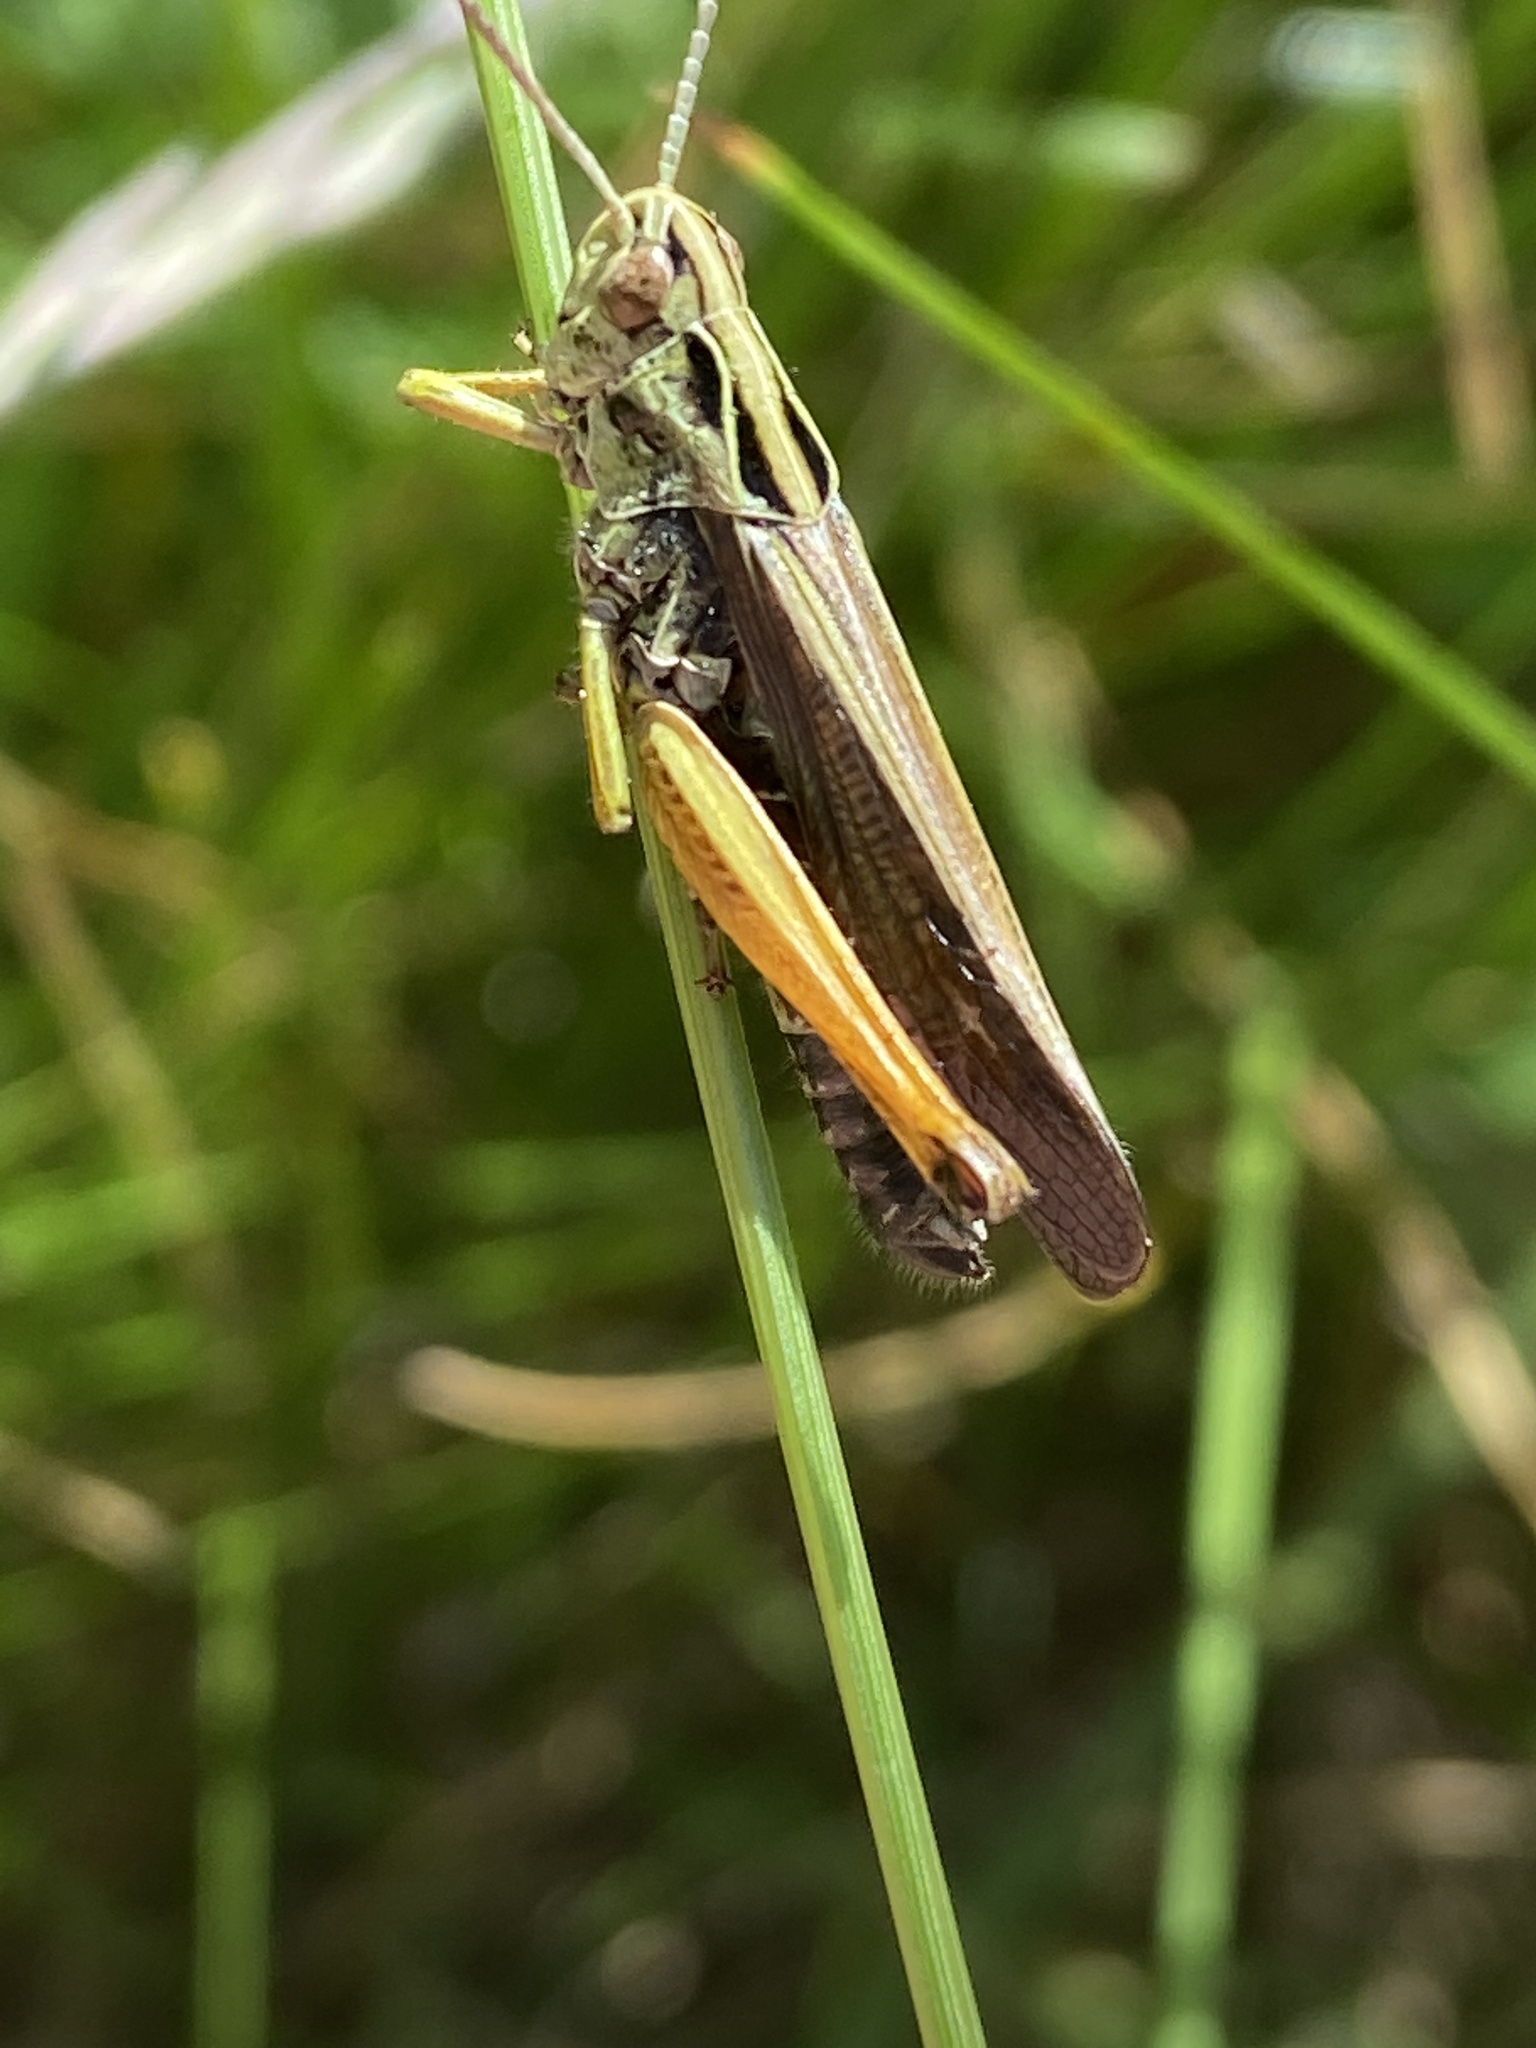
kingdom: Animalia
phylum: Arthropoda
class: Insecta
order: Orthoptera
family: Acrididae
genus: Omocestus
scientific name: Omocestus viridulus
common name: Common green grasshopper
